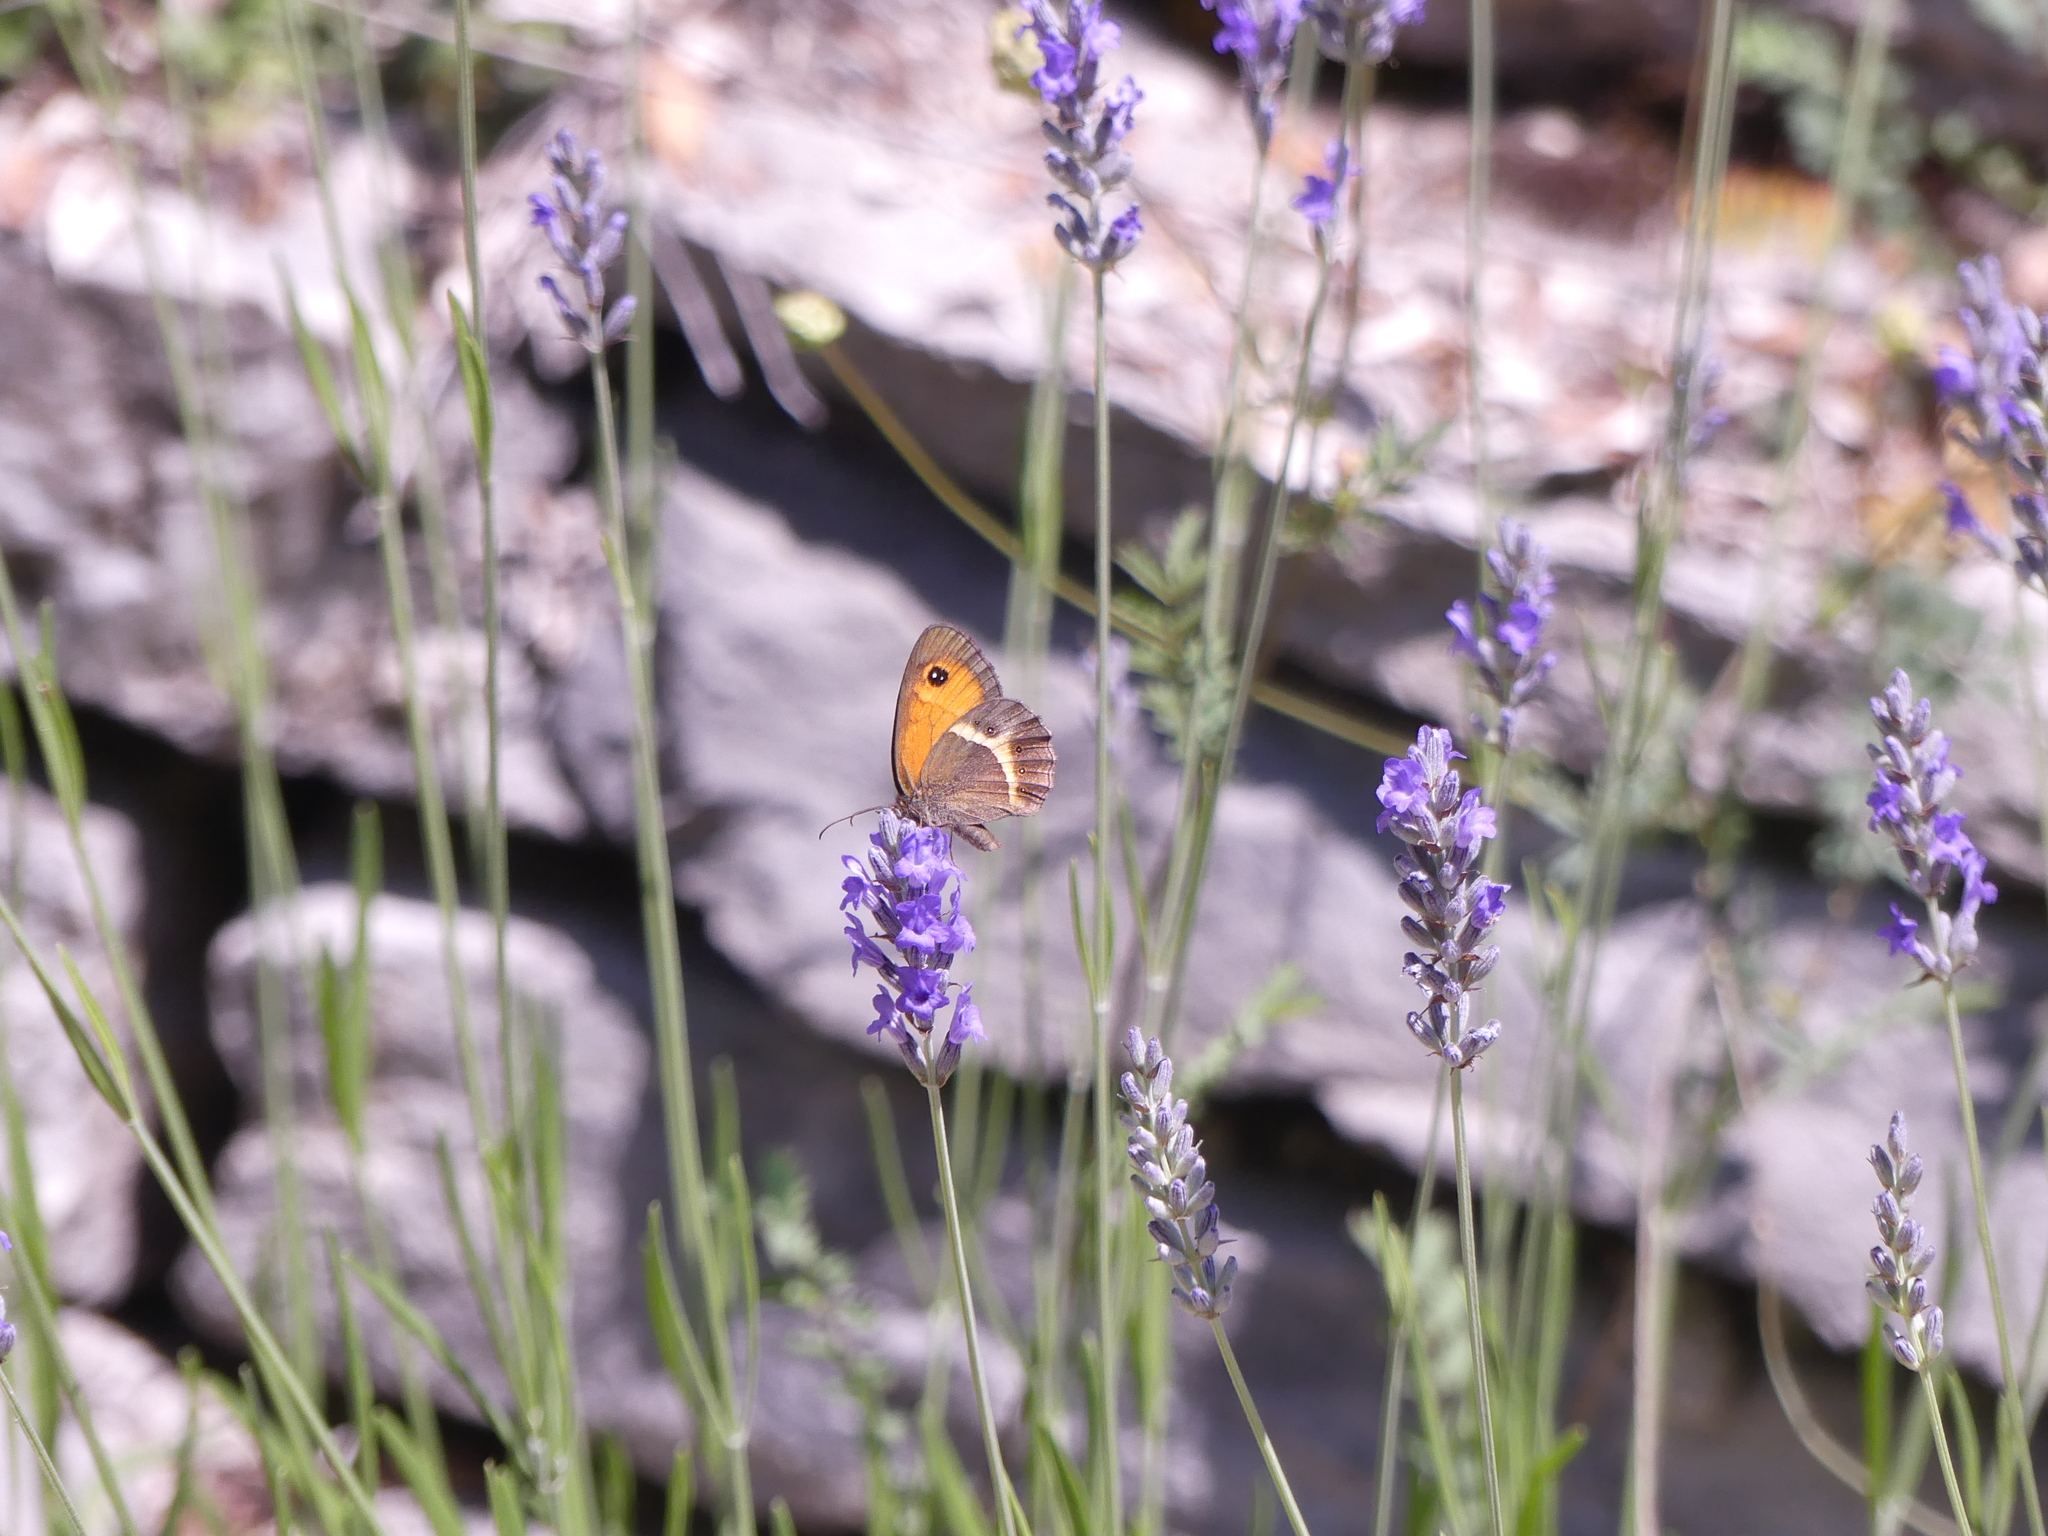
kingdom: Animalia
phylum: Arthropoda
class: Insecta
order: Lepidoptera
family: Nymphalidae
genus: Pyronia
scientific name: Pyronia bathseba
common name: Spanish gatekeeper
